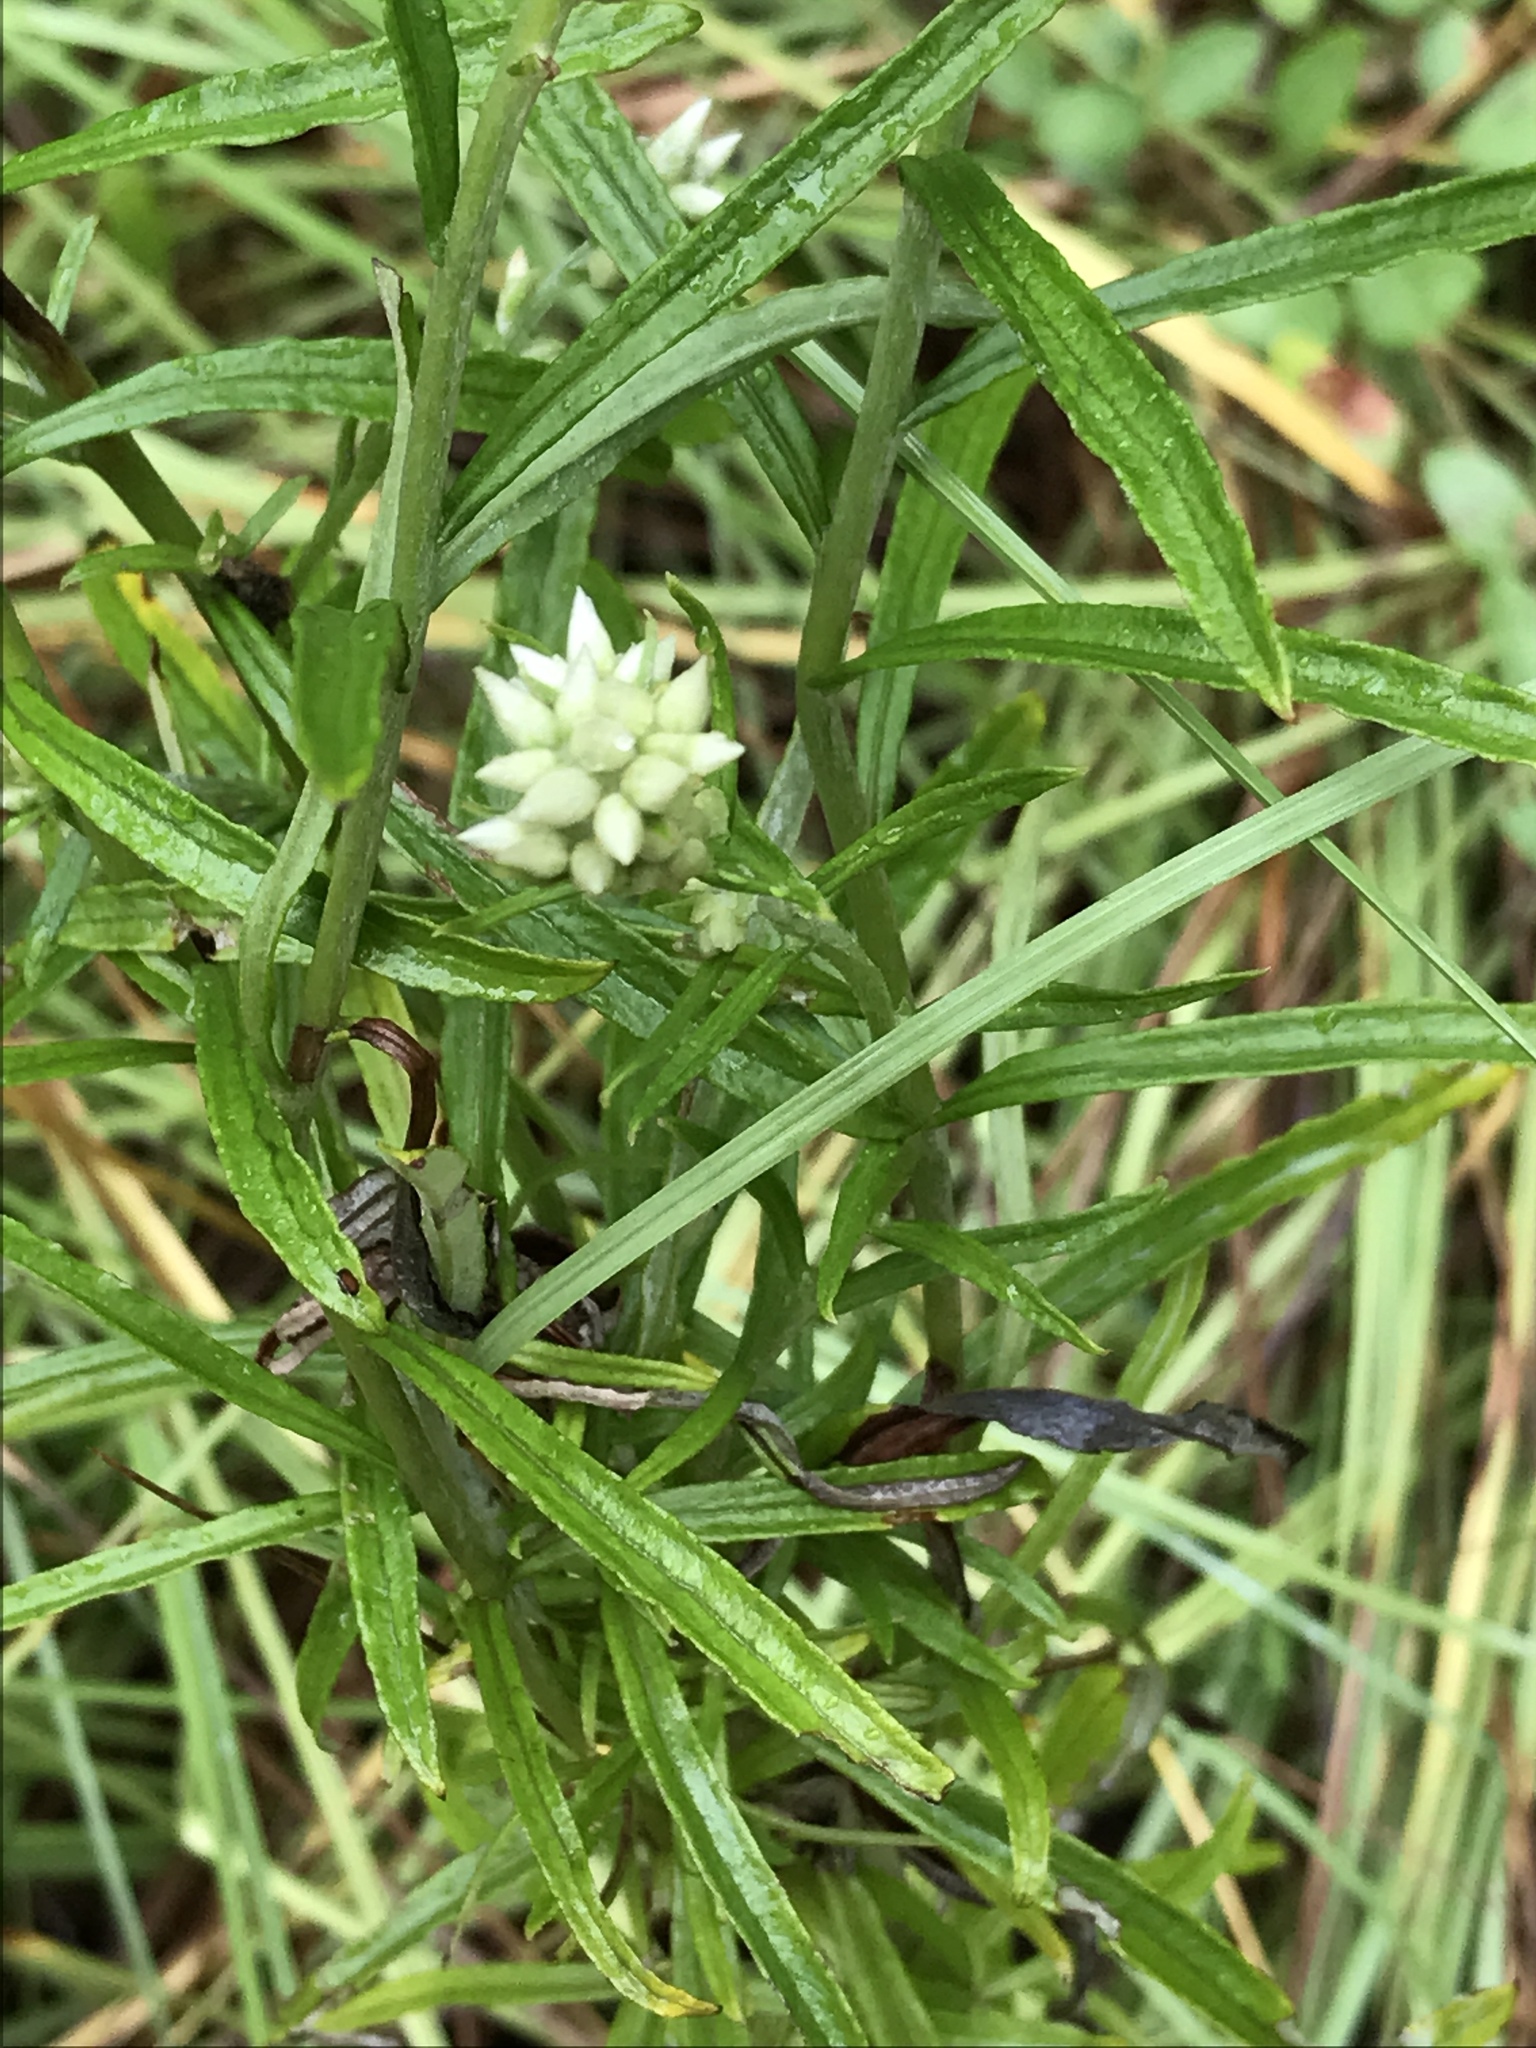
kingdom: Plantae
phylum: Tracheophyta
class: Magnoliopsida
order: Asterales
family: Asteraceae
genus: Pseudognaphalium
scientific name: Pseudognaphalium obtusifolium
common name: Eastern rabbit-tobacco
